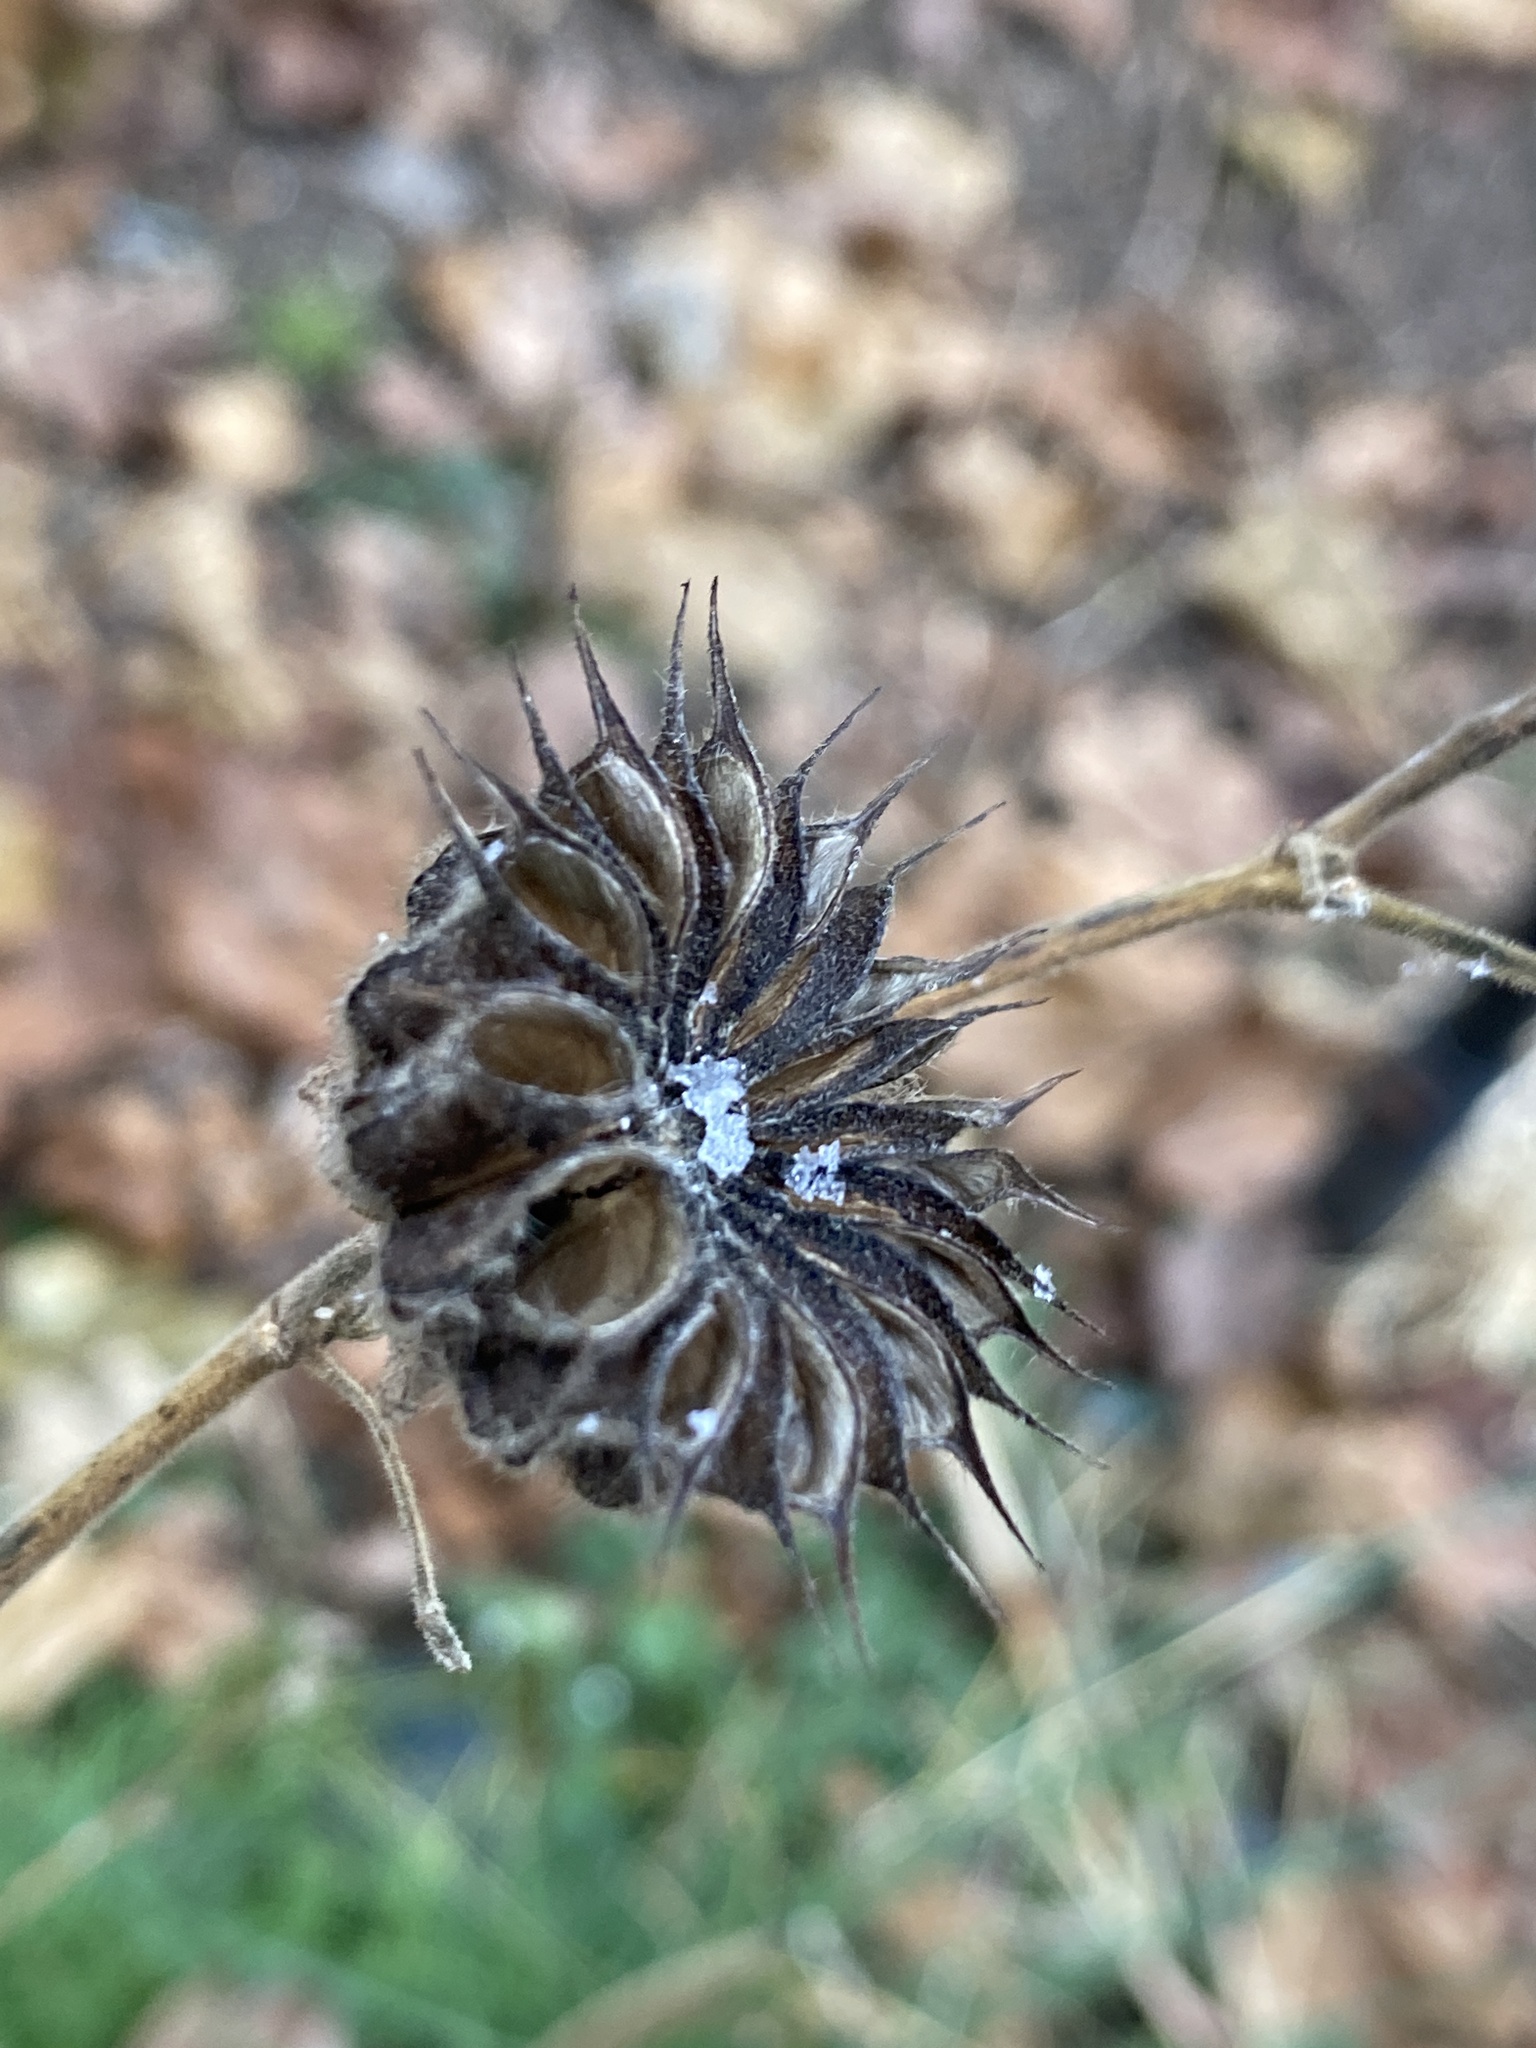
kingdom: Plantae
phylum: Tracheophyta
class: Magnoliopsida
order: Malvales
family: Malvaceae
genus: Abutilon
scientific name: Abutilon theophrasti
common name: Velvetleaf
